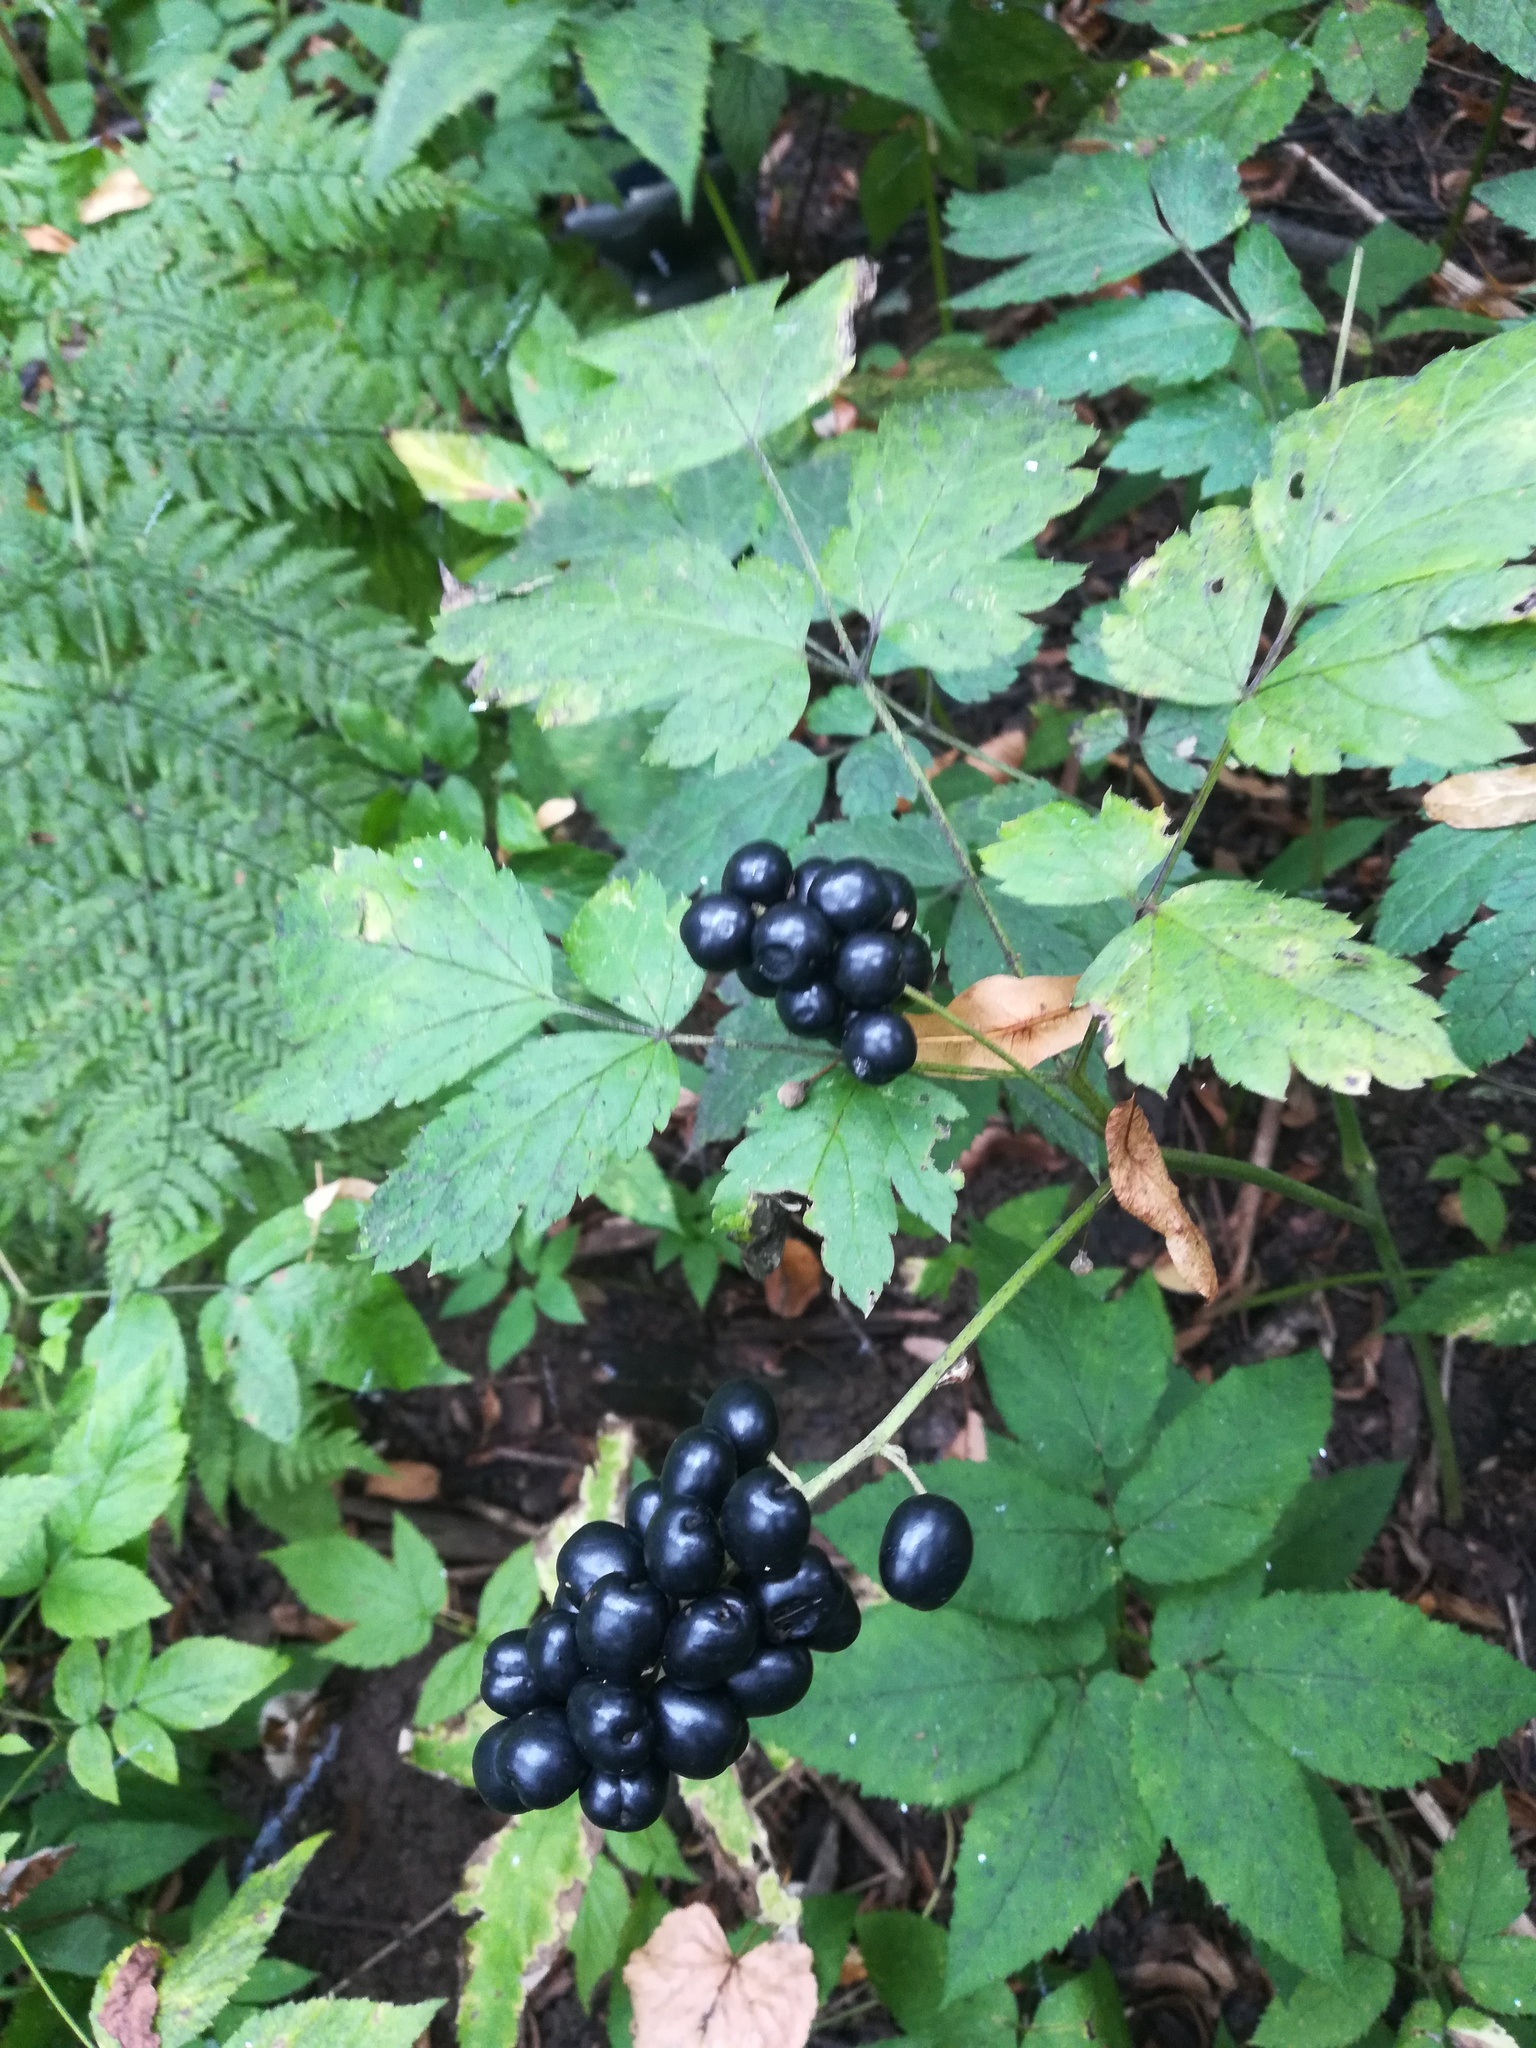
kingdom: Plantae
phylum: Tracheophyta
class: Magnoliopsida
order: Ranunculales
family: Ranunculaceae
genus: Actaea
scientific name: Actaea spicata
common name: Baneberry
